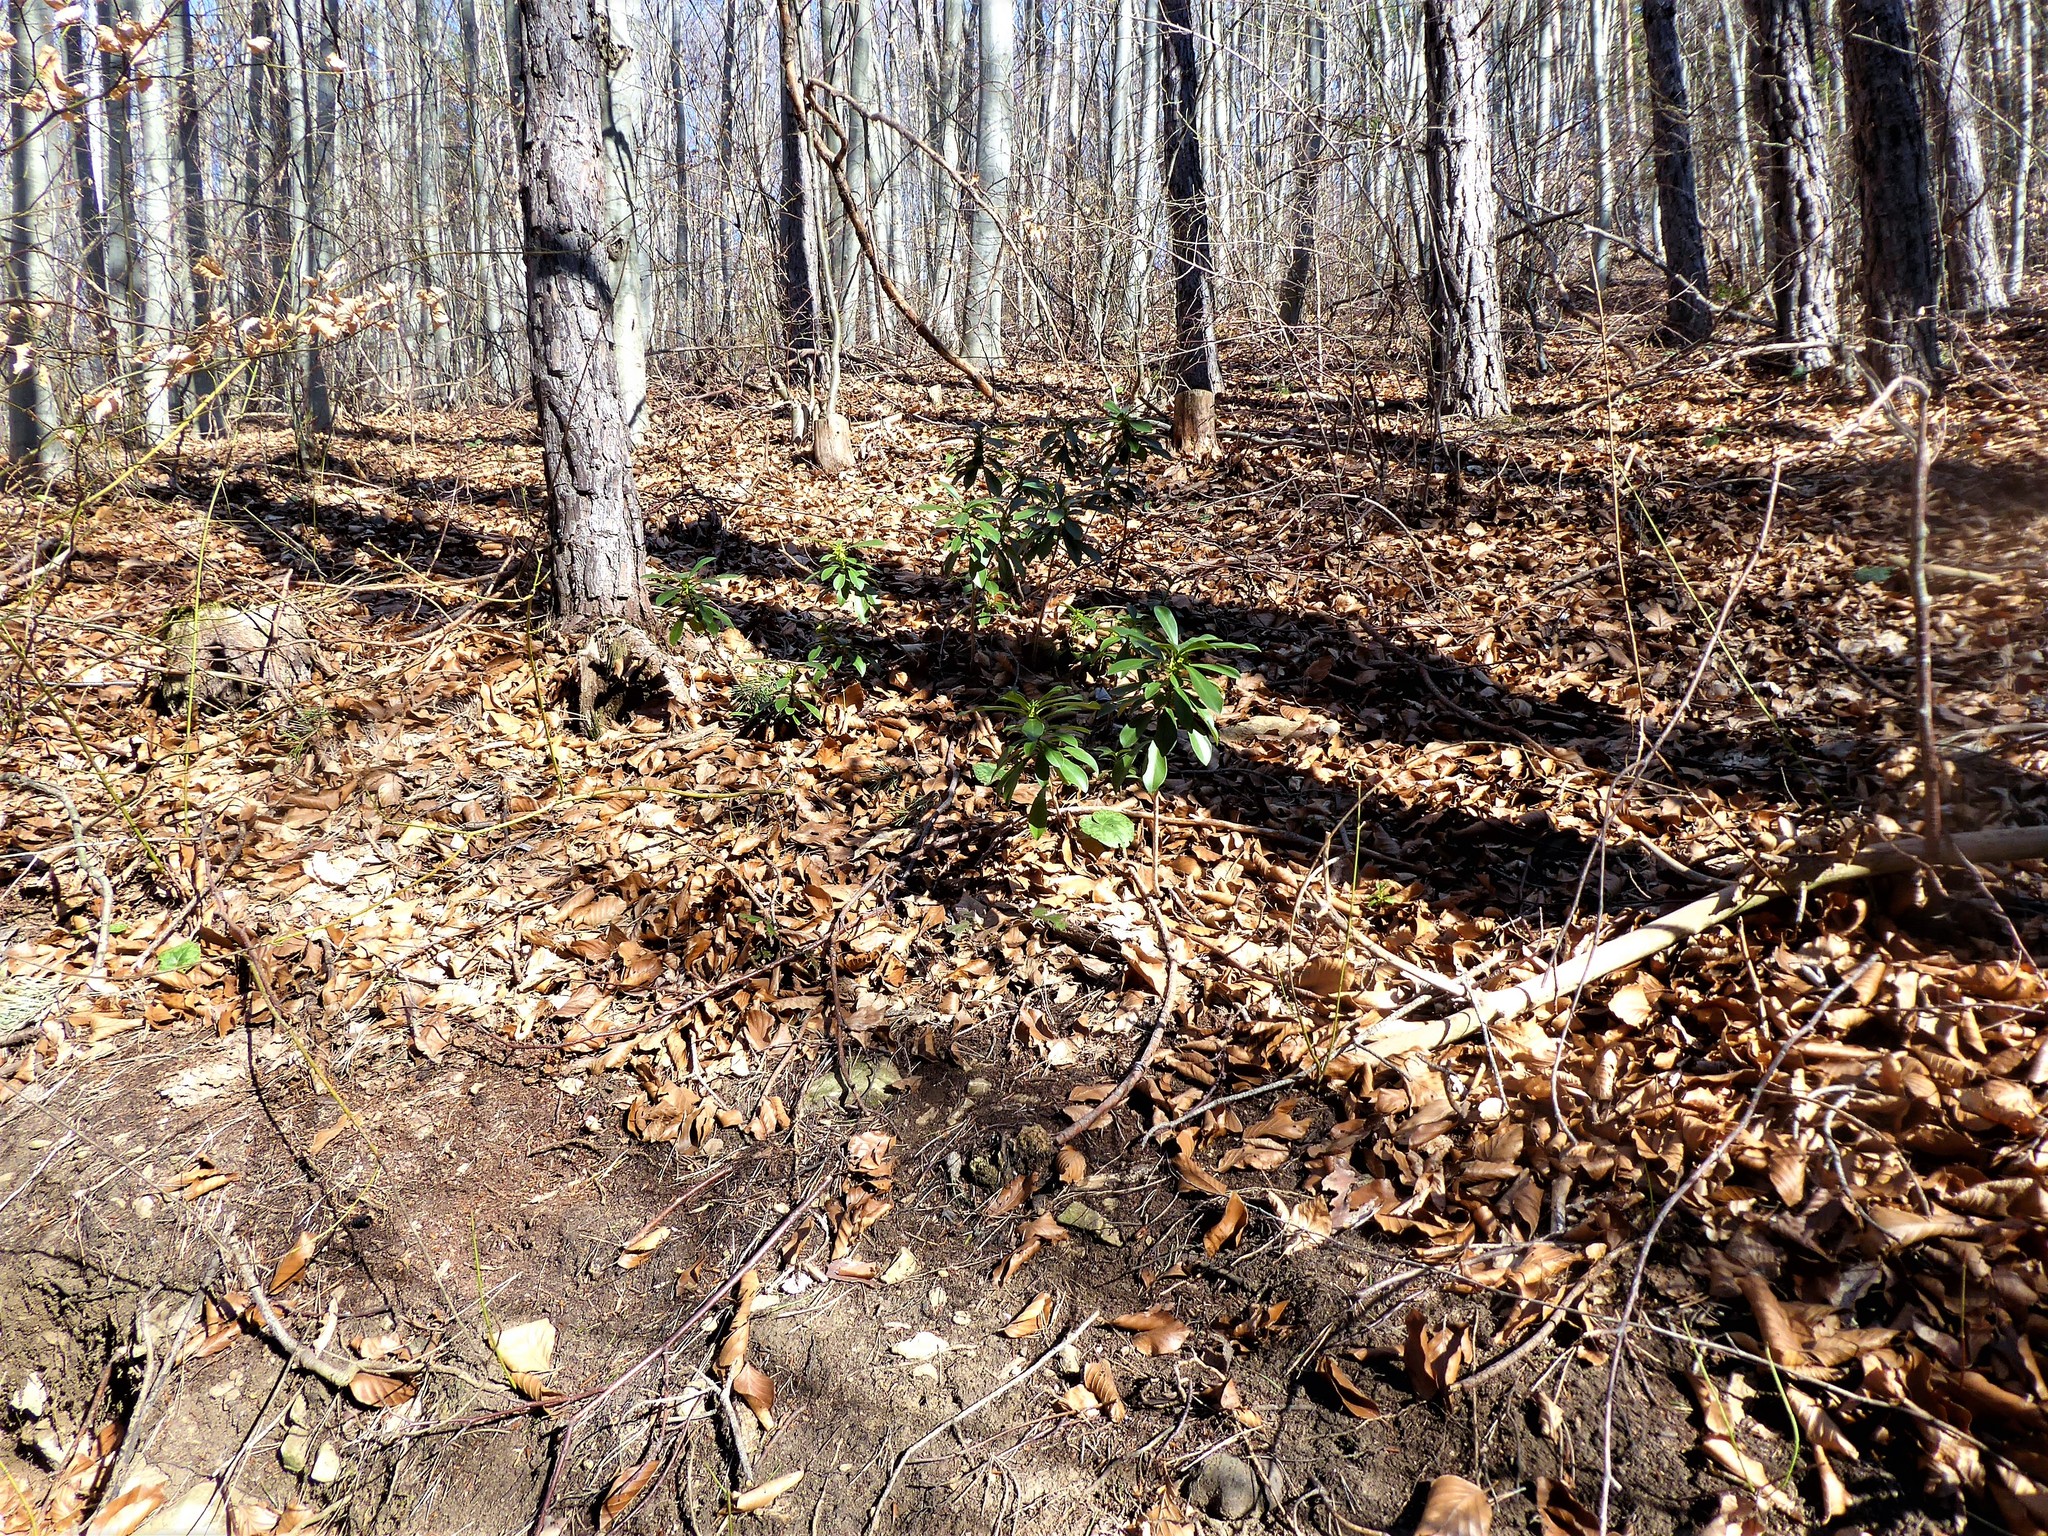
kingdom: Plantae
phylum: Tracheophyta
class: Magnoliopsida
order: Malvales
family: Thymelaeaceae
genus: Daphne
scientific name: Daphne laureola
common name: Spurge-laurel
